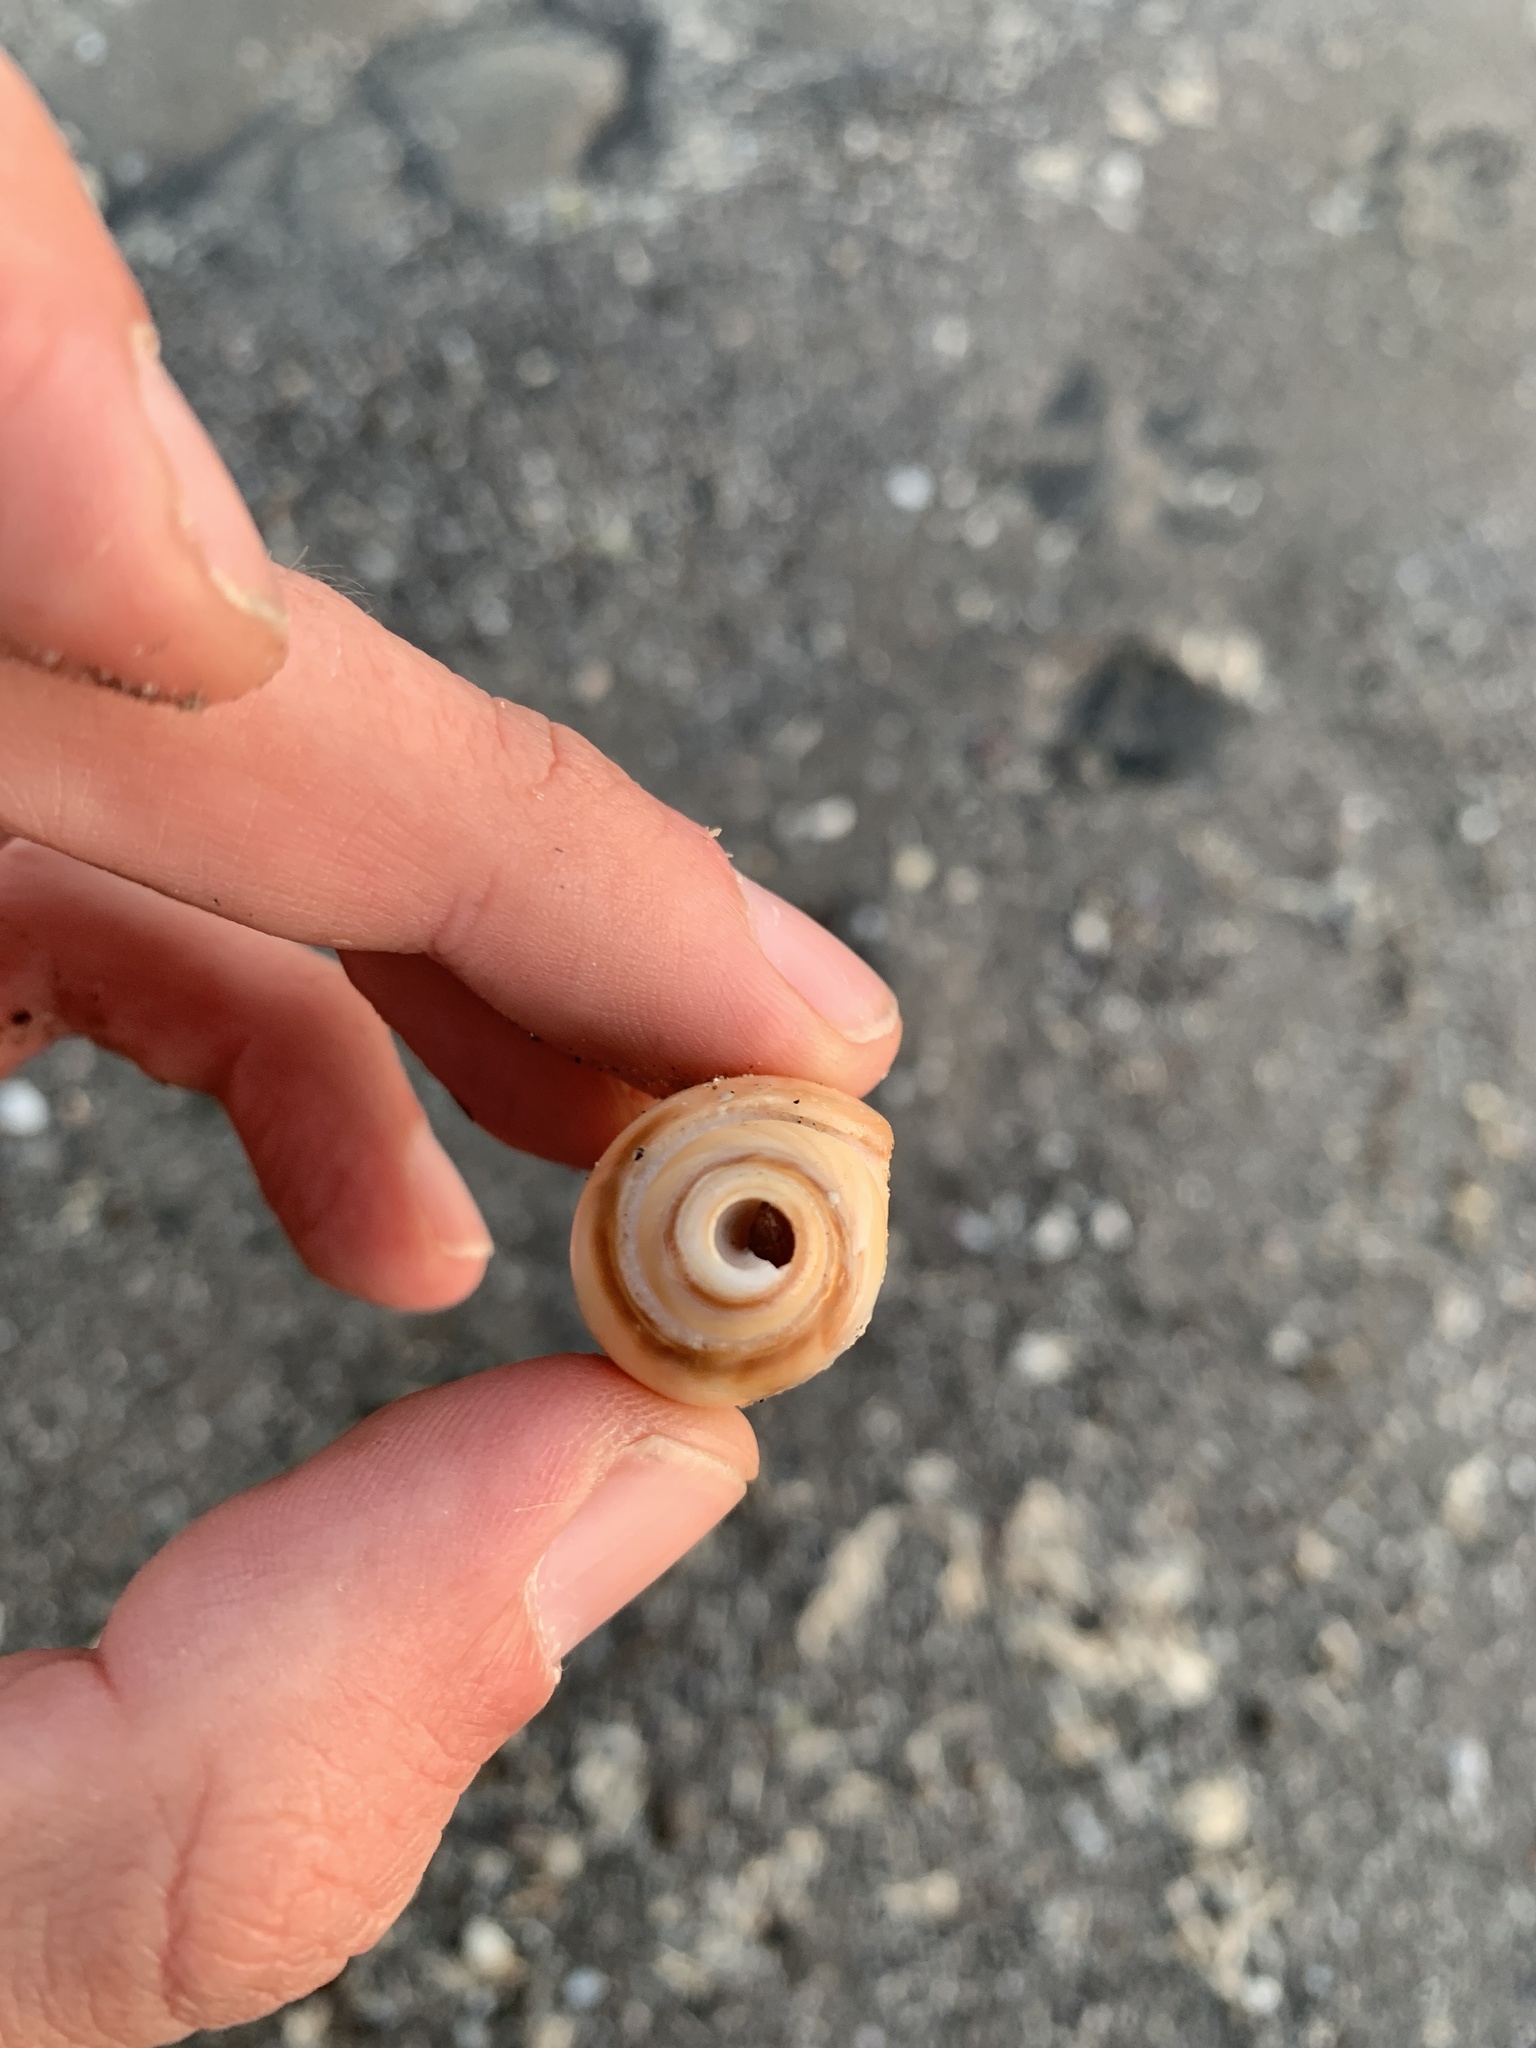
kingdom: Animalia
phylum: Mollusca
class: Gastropoda
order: Neogastropoda
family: Olividae
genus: Olivancillaria
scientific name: Olivancillaria urceus
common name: Bear ancilla
